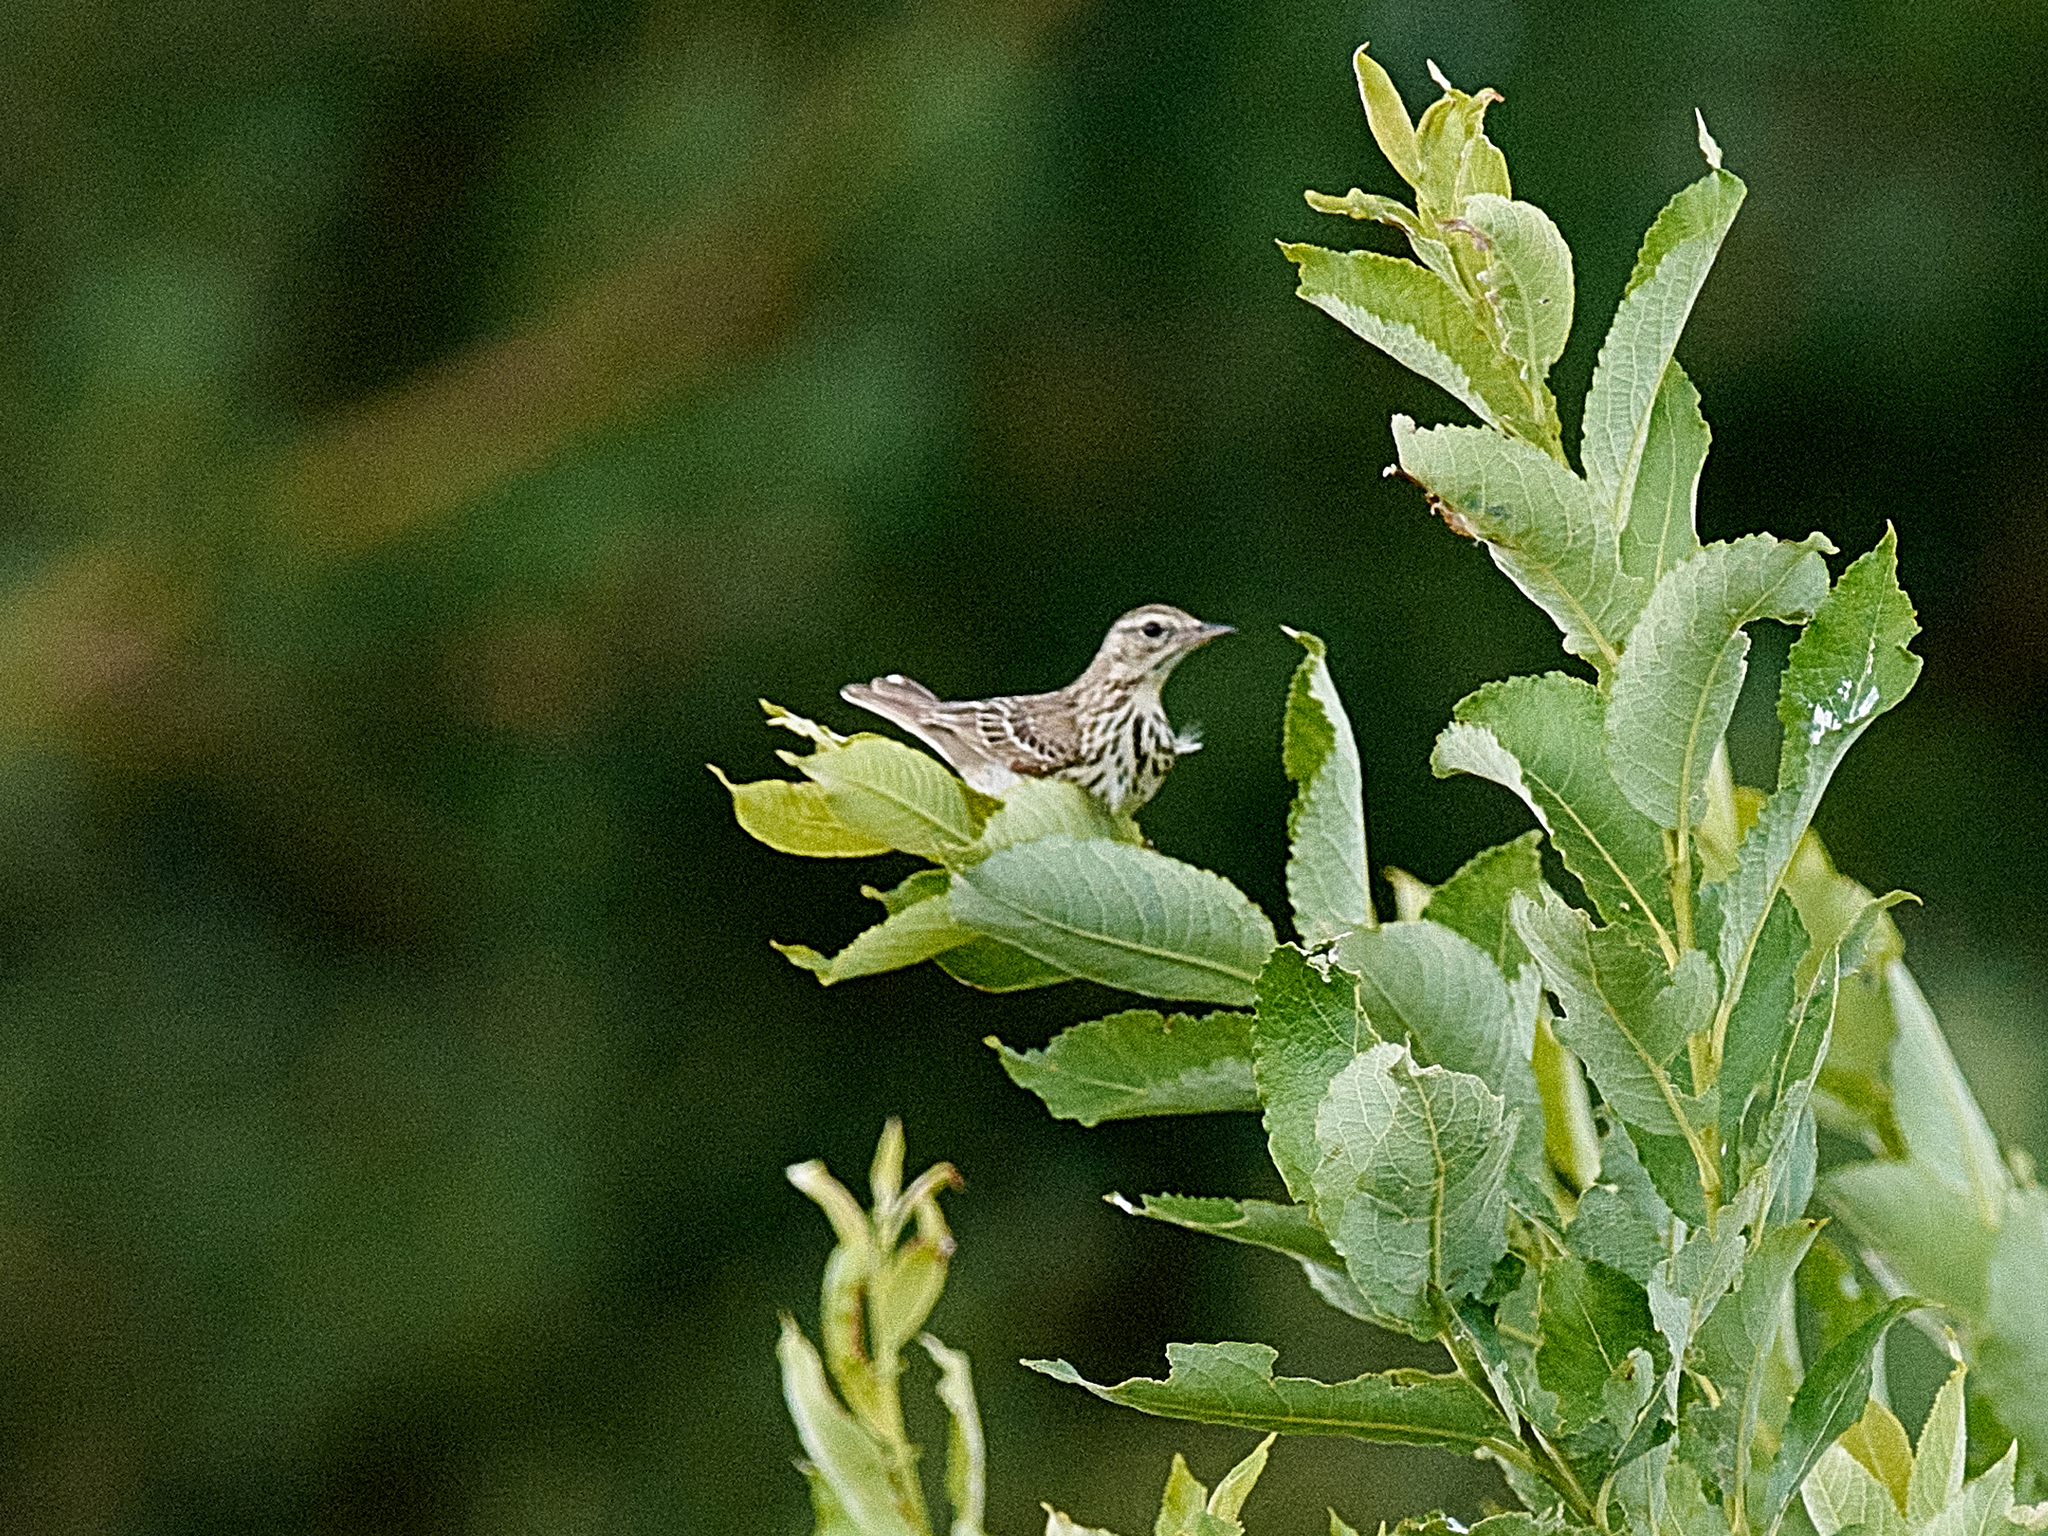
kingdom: Animalia
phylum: Chordata
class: Aves
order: Passeriformes
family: Motacillidae
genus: Anthus
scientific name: Anthus trivialis
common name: Tree pipit
